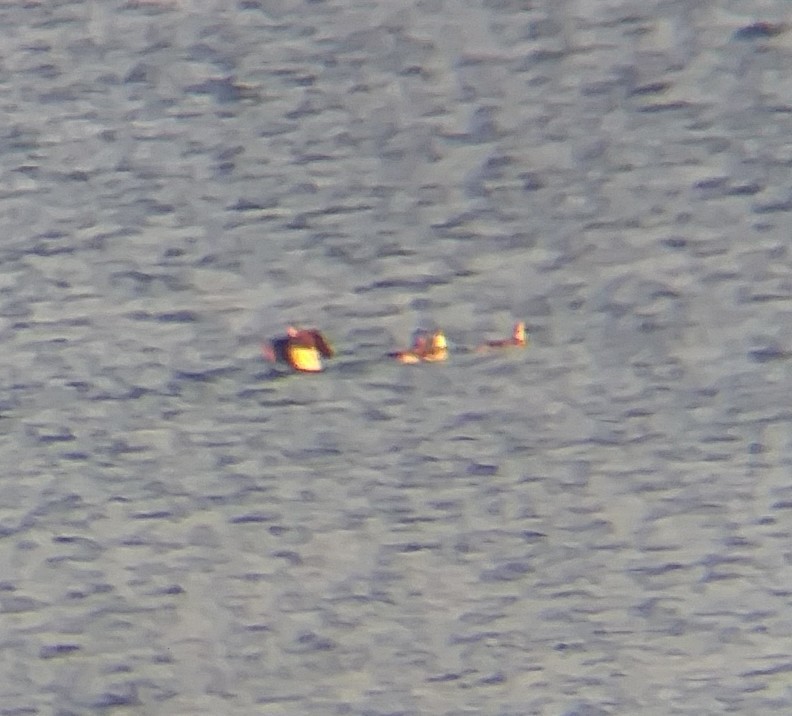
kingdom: Animalia
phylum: Chordata
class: Aves
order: Anseriformes
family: Anatidae
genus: Clangula
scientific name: Clangula hyemalis
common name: Long-tailed duck
